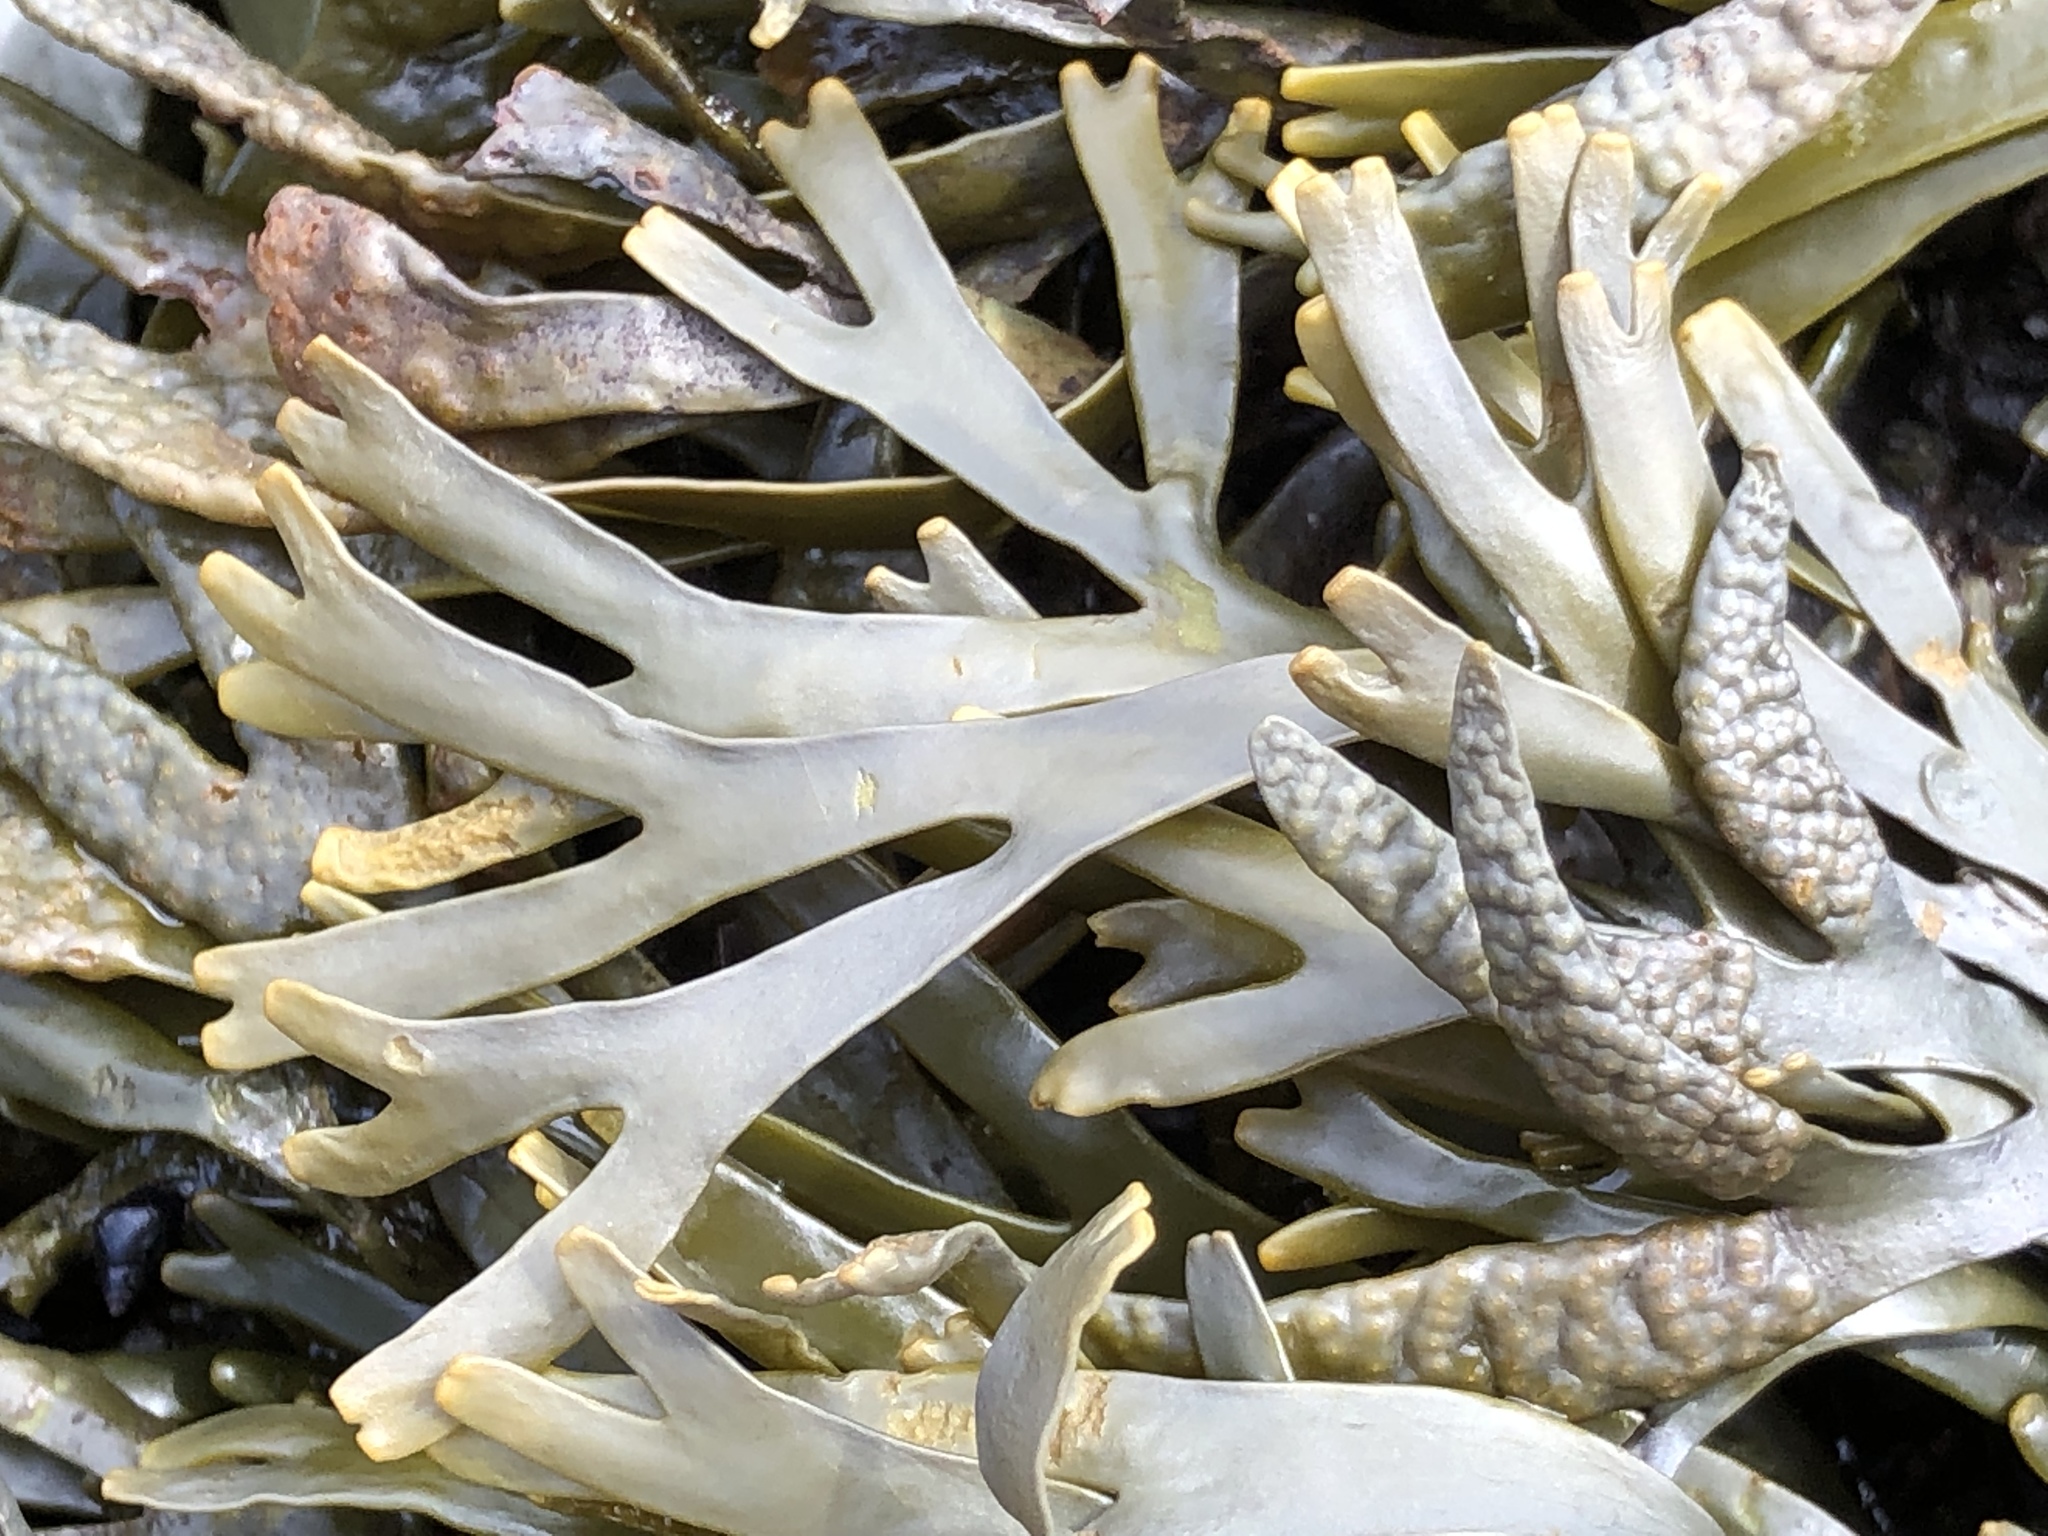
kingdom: Chromista
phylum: Ochrophyta
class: Phaeophyceae
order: Fucales
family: Fucaceae
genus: Pelvetiopsis
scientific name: Pelvetiopsis limitata
